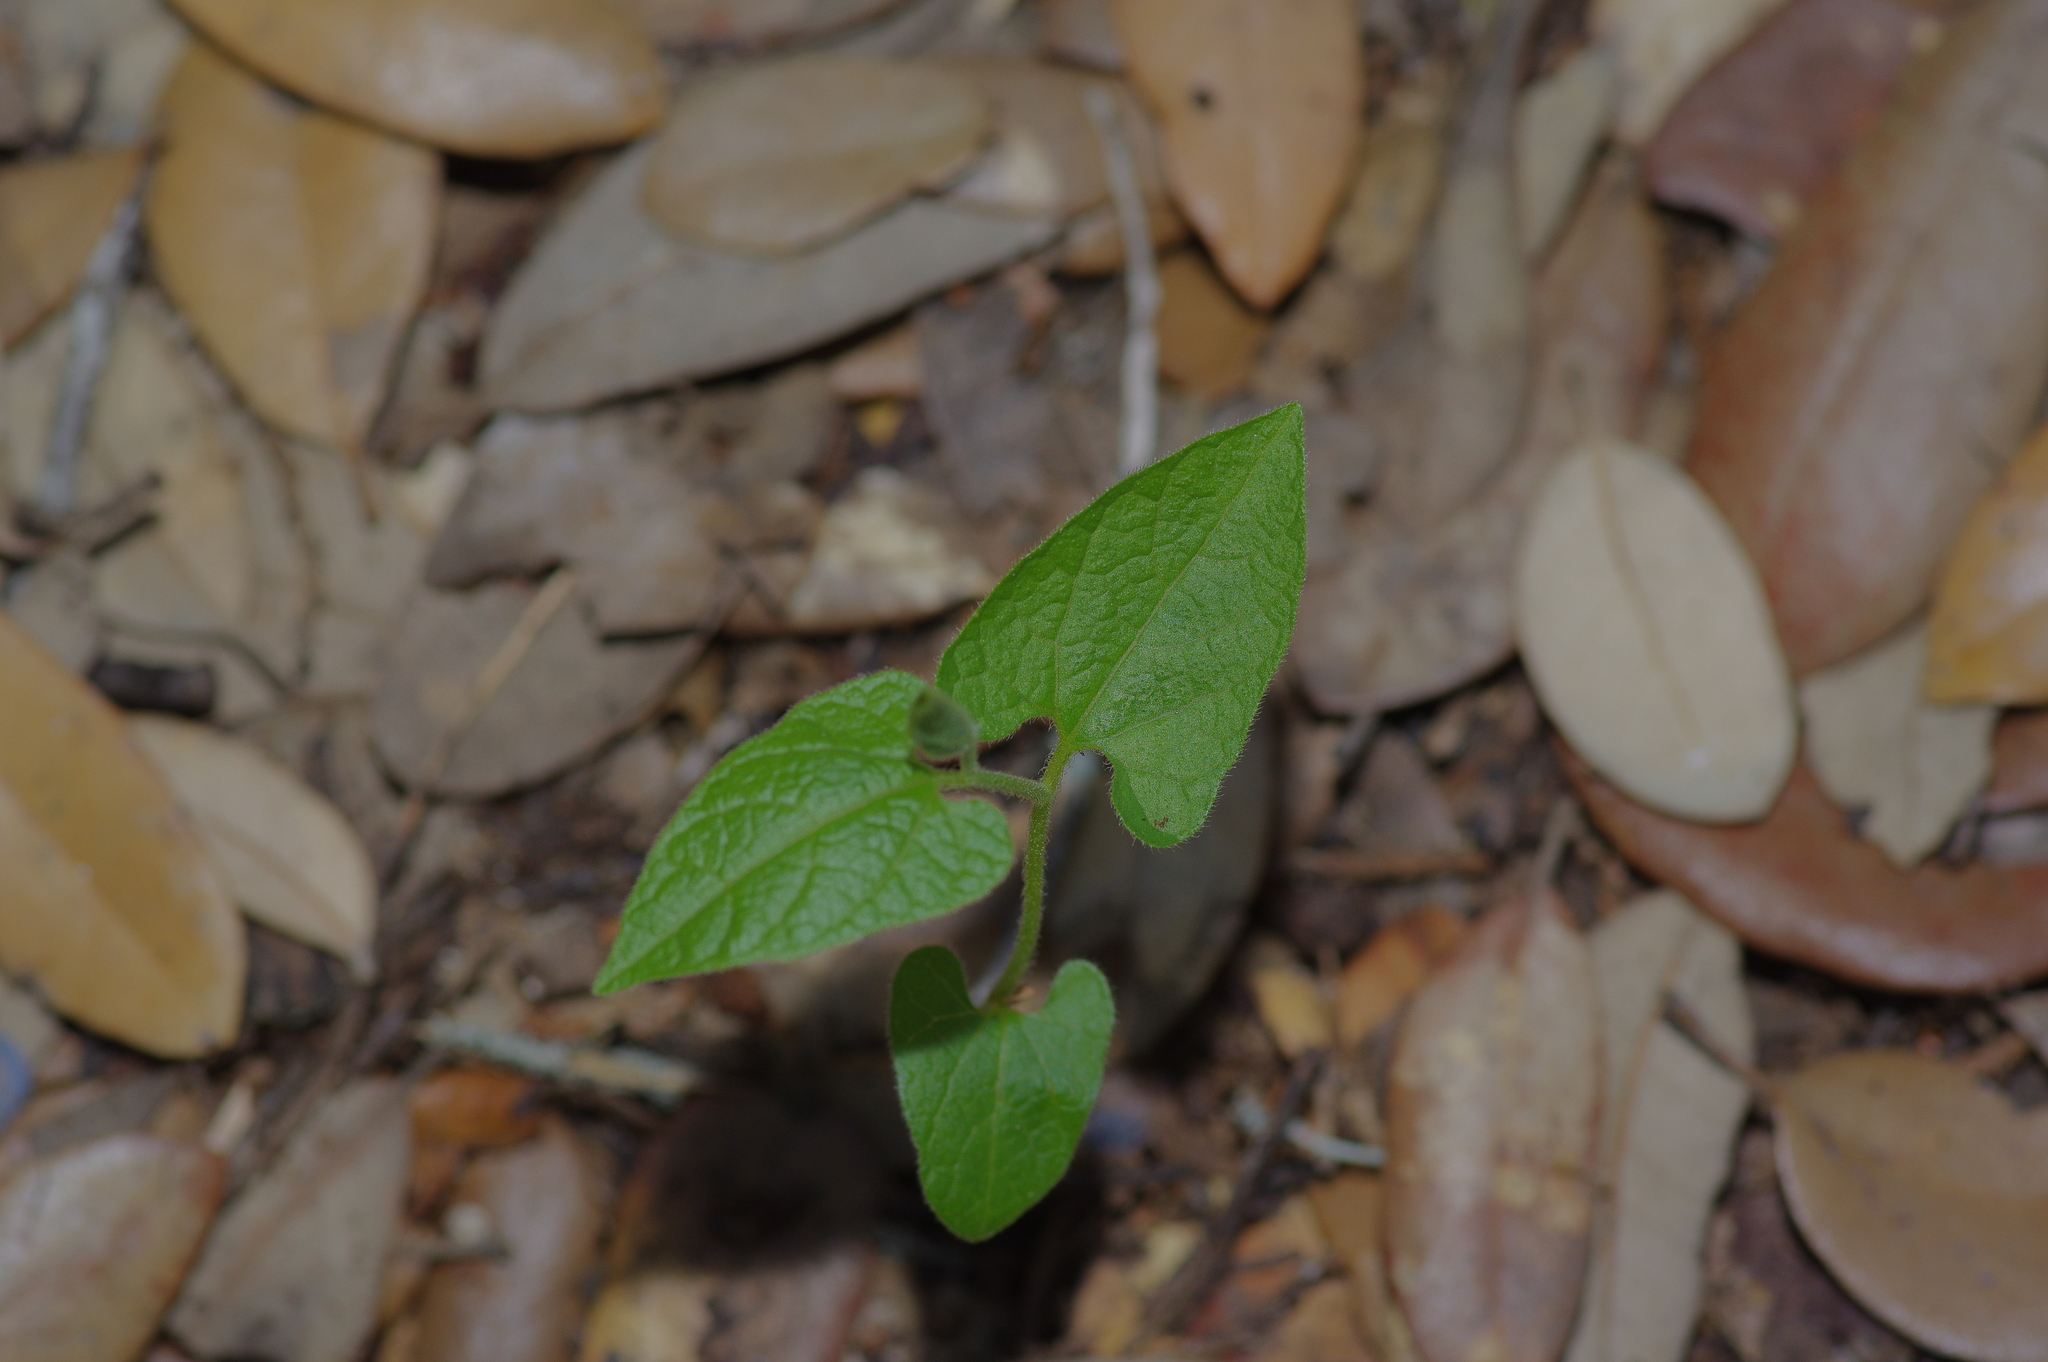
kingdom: Plantae
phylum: Tracheophyta
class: Magnoliopsida
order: Piperales
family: Aristolochiaceae
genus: Endodeca
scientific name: Endodeca serpentaria
